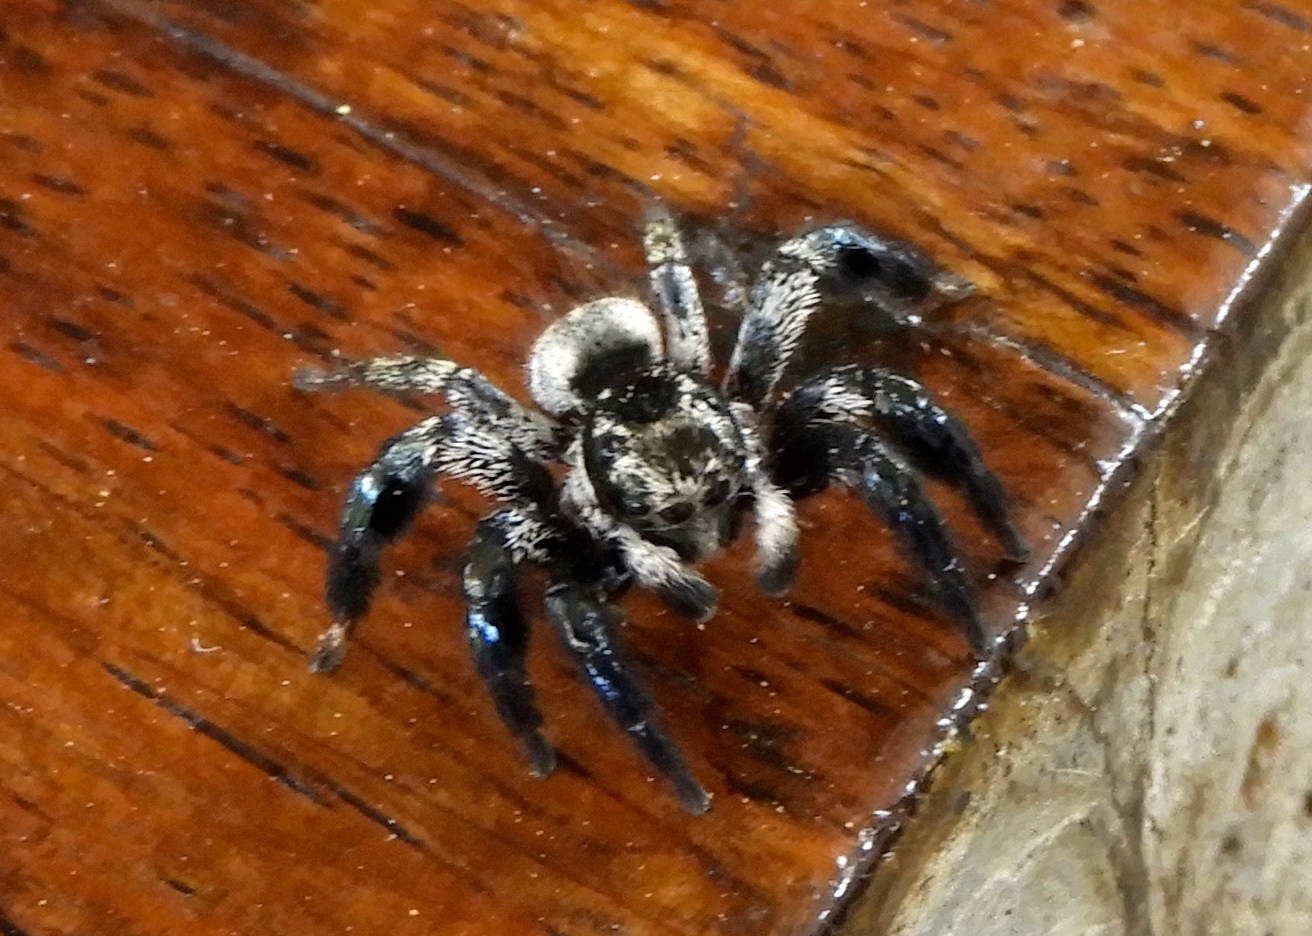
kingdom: Animalia
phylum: Arthropoda
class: Arachnida
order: Araneae
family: Salticidae
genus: Corythalia
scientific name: Corythalia
